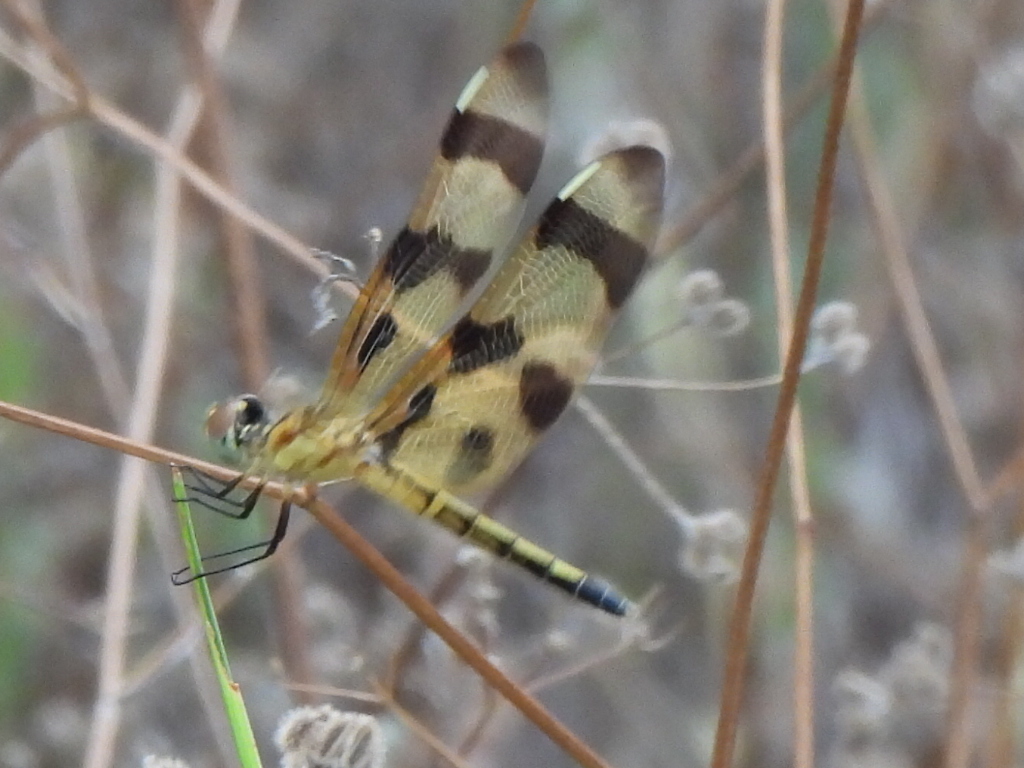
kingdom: Animalia
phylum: Arthropoda
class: Insecta
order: Odonata
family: Libellulidae
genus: Celithemis
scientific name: Celithemis eponina
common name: Halloween pennant
